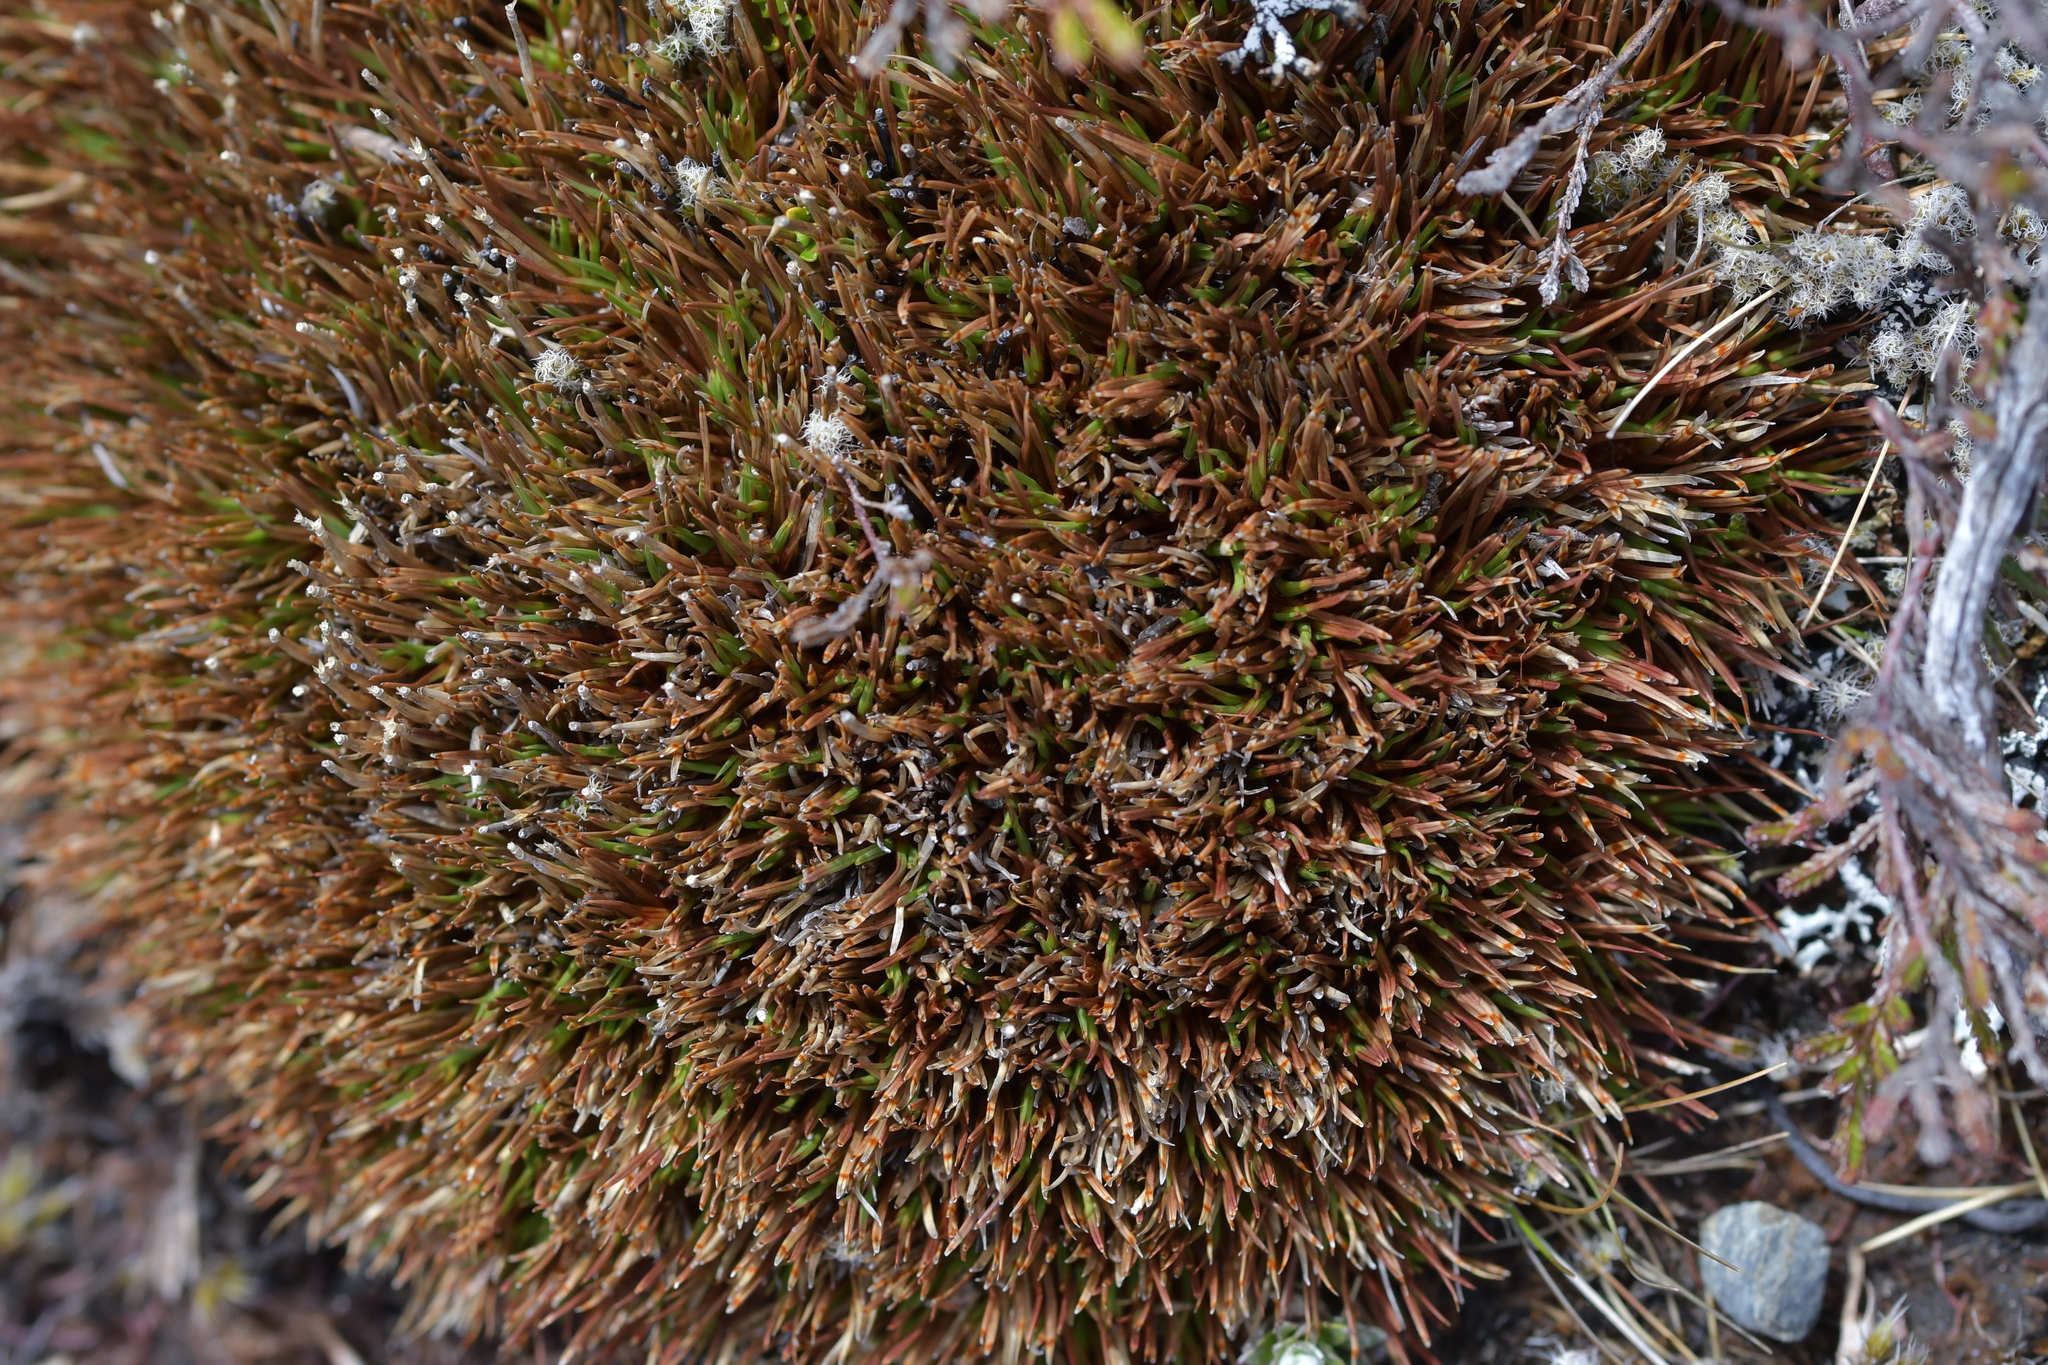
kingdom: Plantae
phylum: Tracheophyta
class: Liliopsida
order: Poales
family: Cyperaceae
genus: Oreobolus
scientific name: Oreobolus pectinatus
